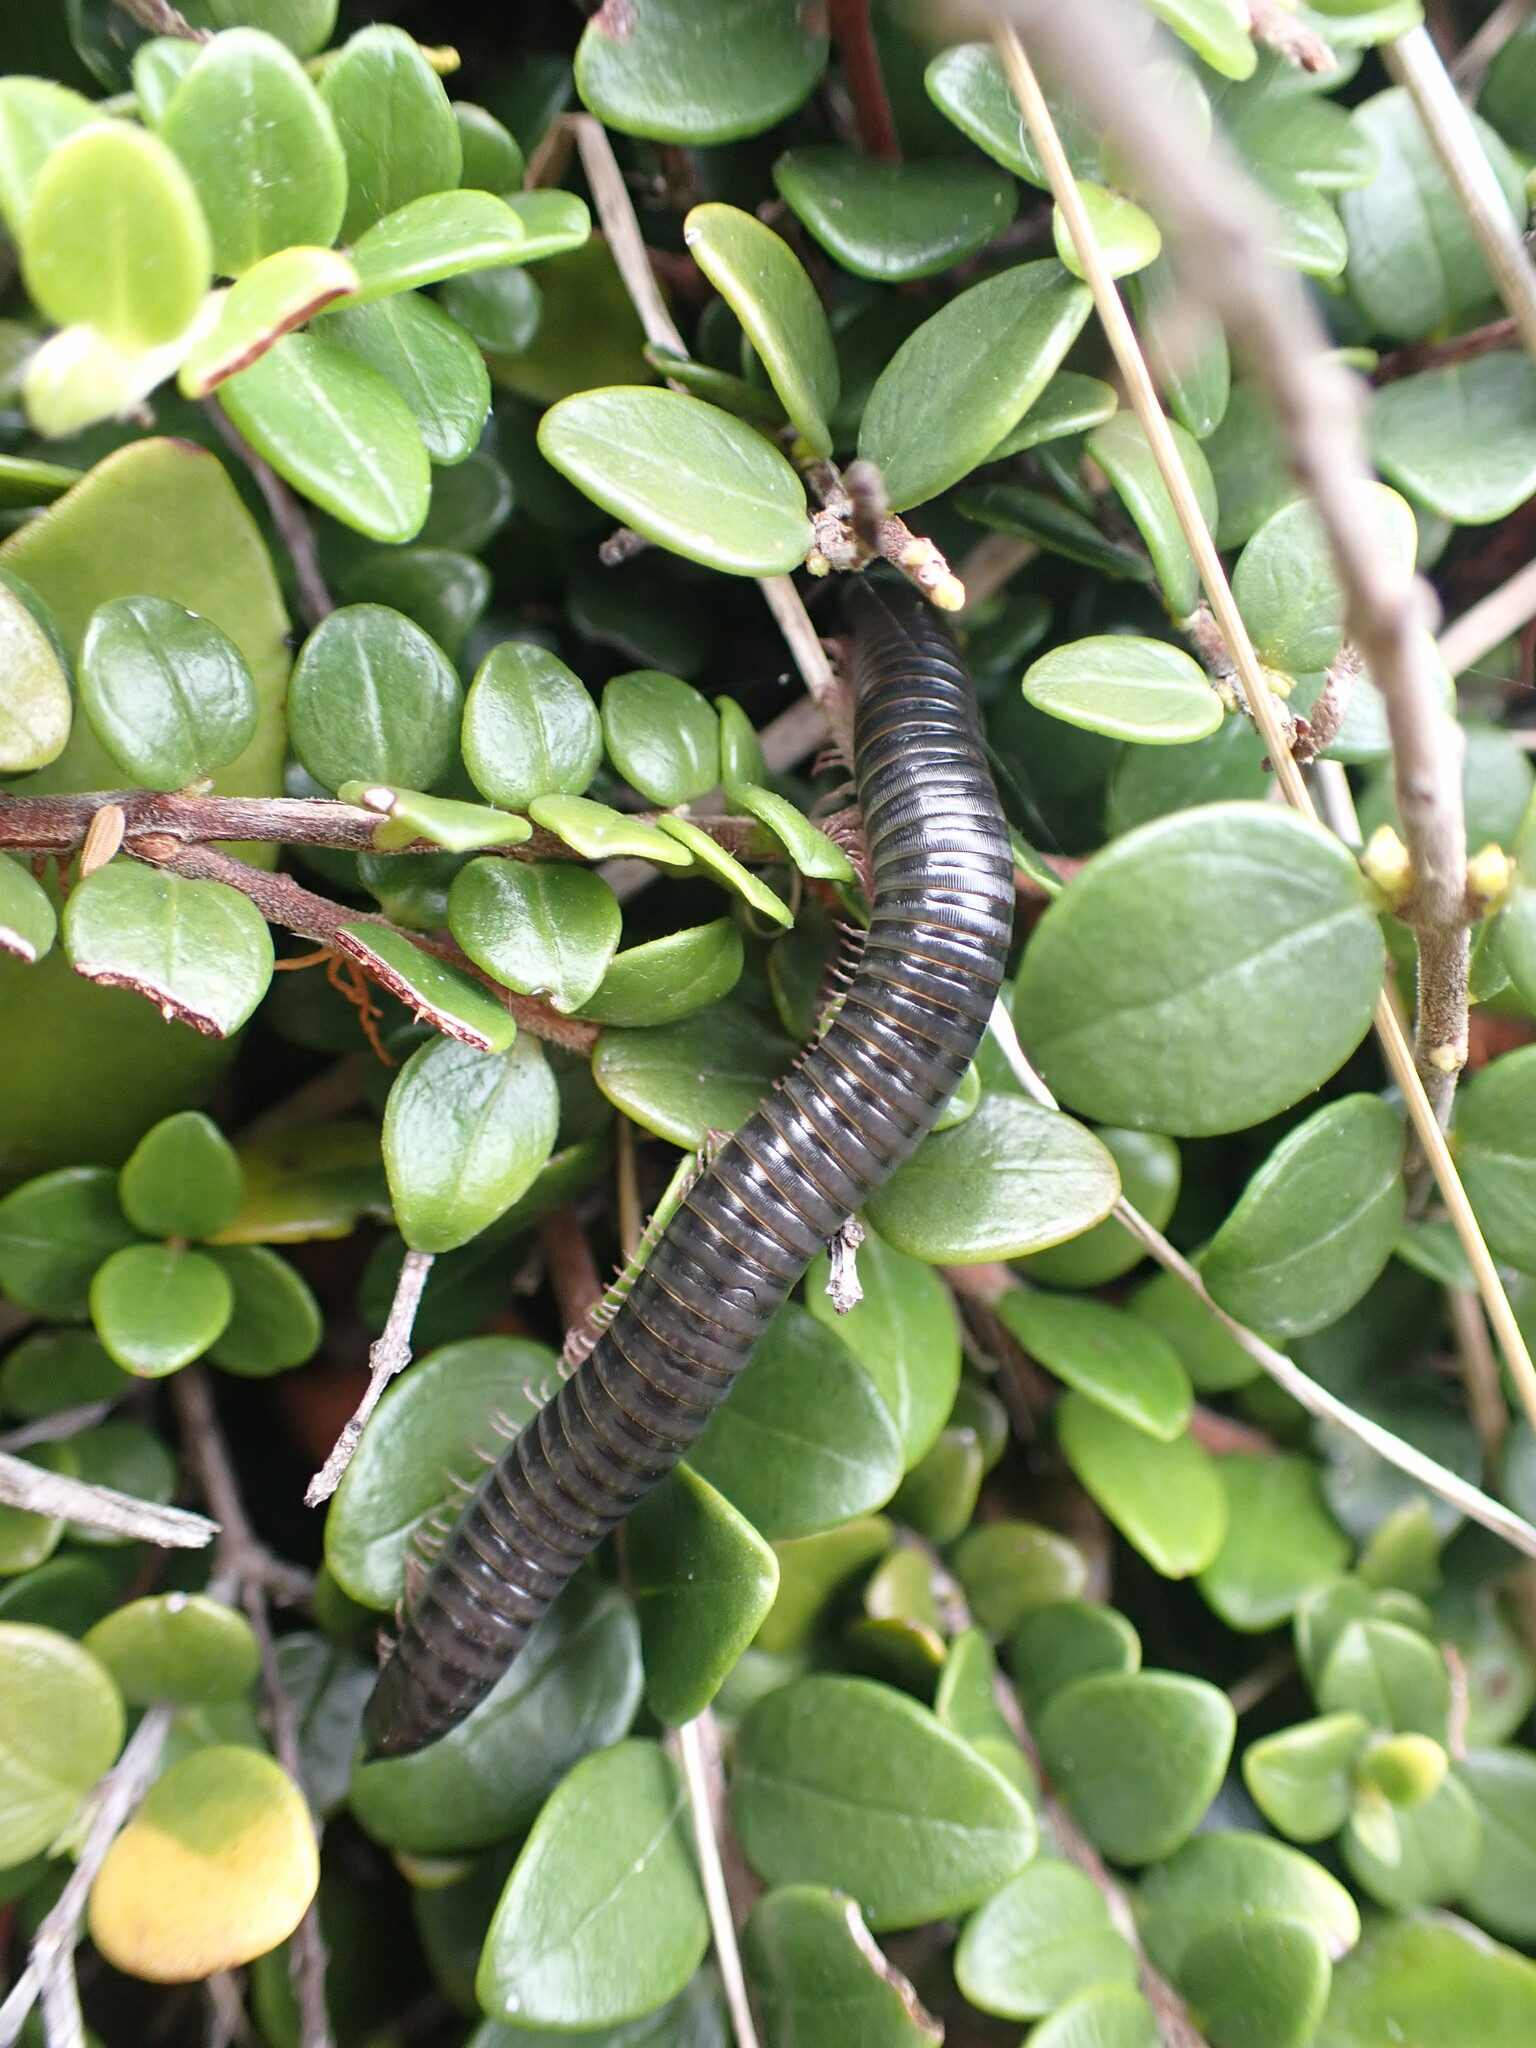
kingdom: Animalia
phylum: Arthropoda
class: Diplopoda
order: Julida
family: Julidae
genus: Ommatoiulus
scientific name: Ommatoiulus moreleti
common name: Portuguese millipede
